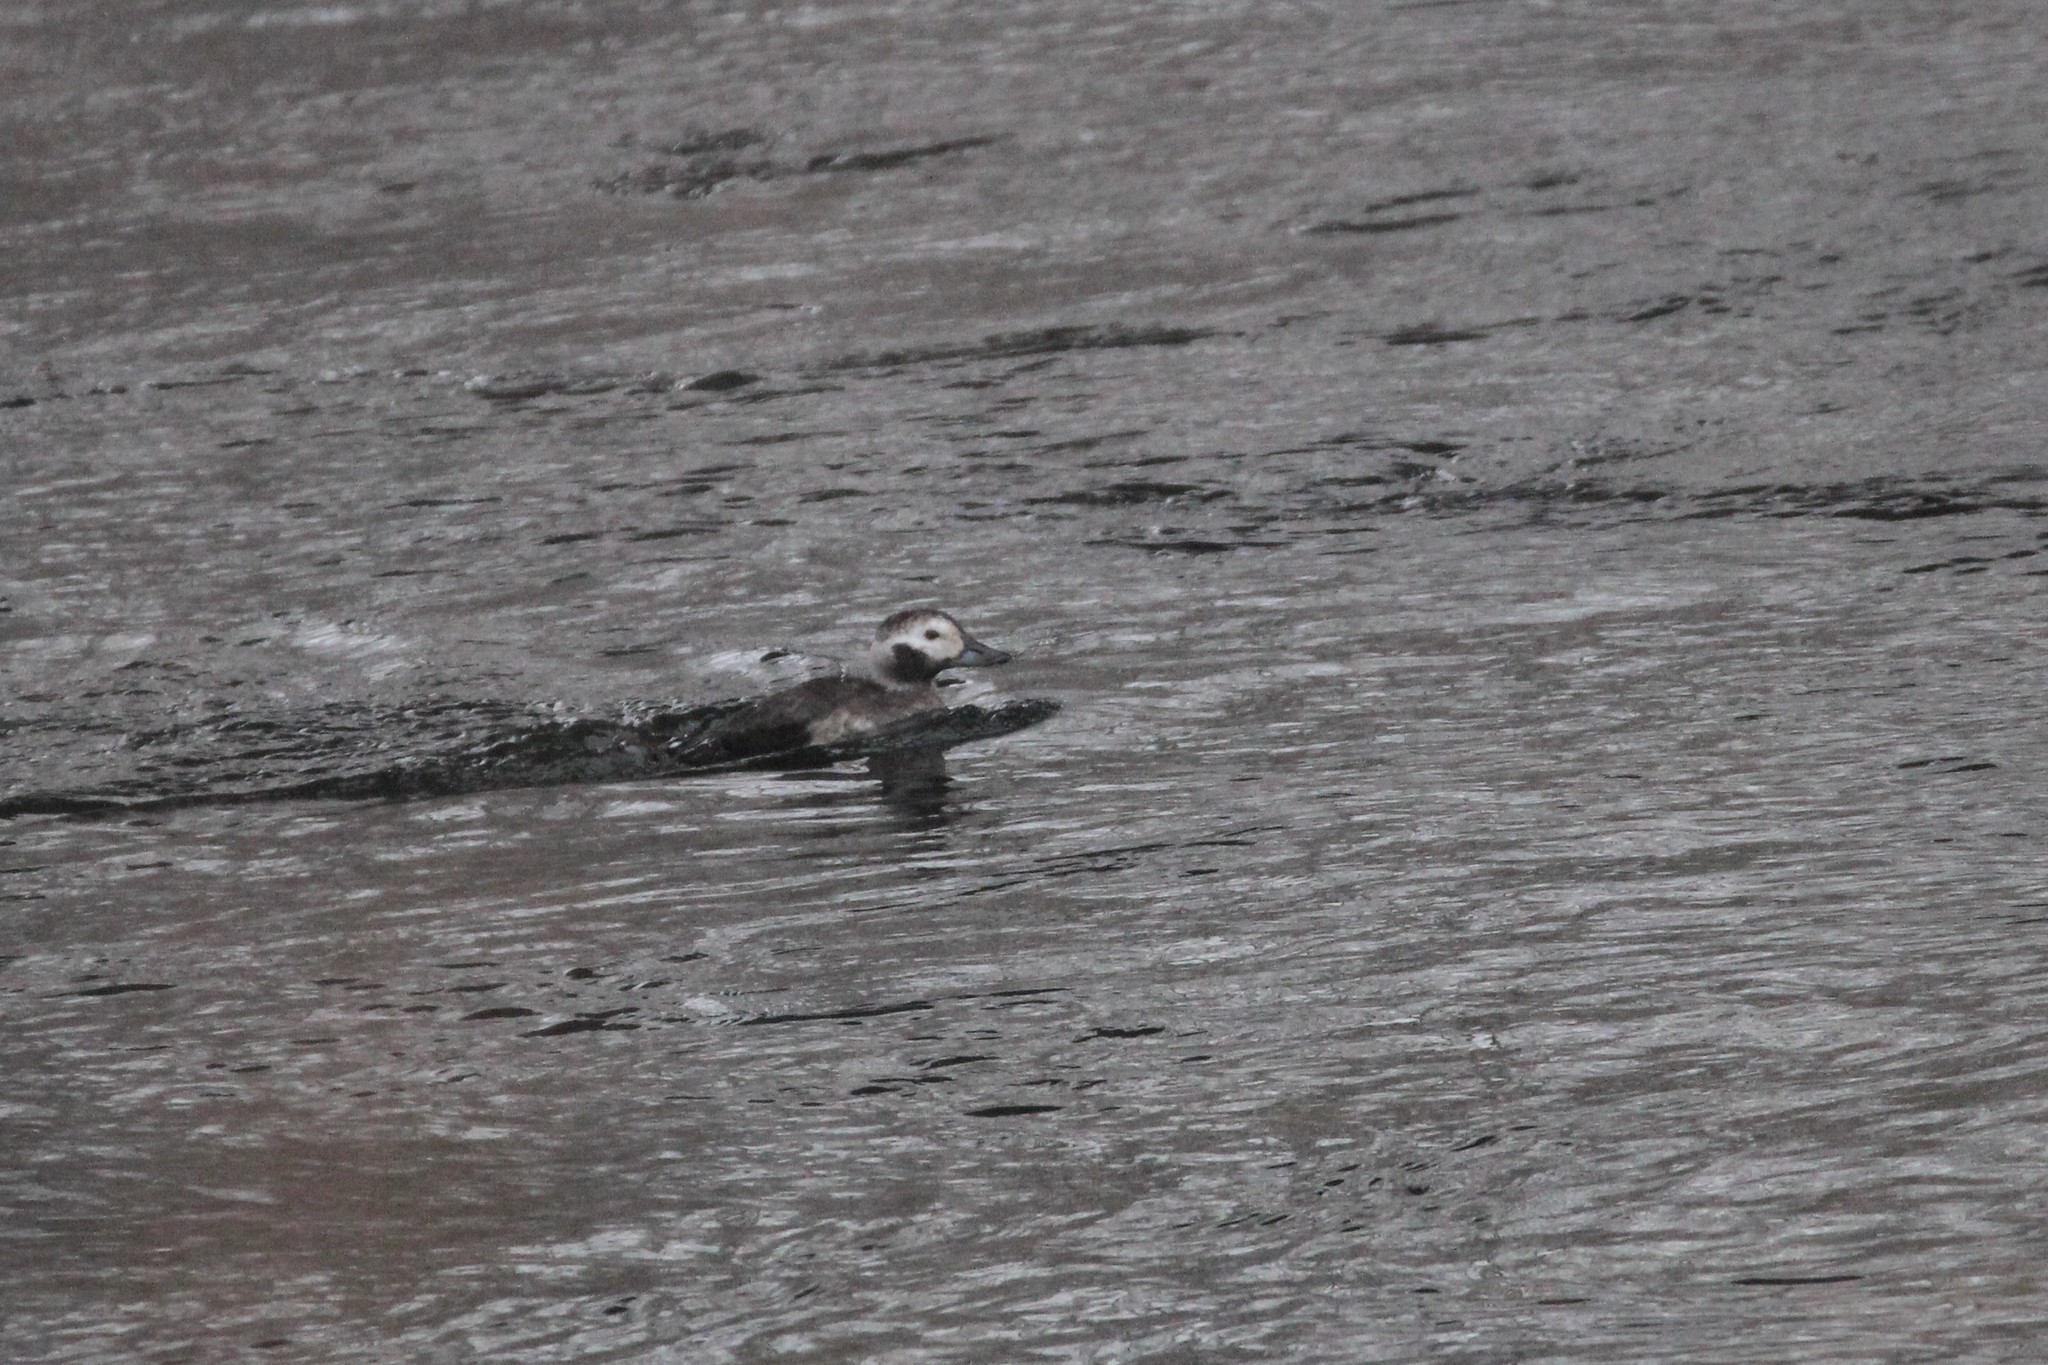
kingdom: Animalia
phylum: Chordata
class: Aves
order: Anseriformes
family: Anatidae
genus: Clangula
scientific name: Clangula hyemalis
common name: Long-tailed duck
